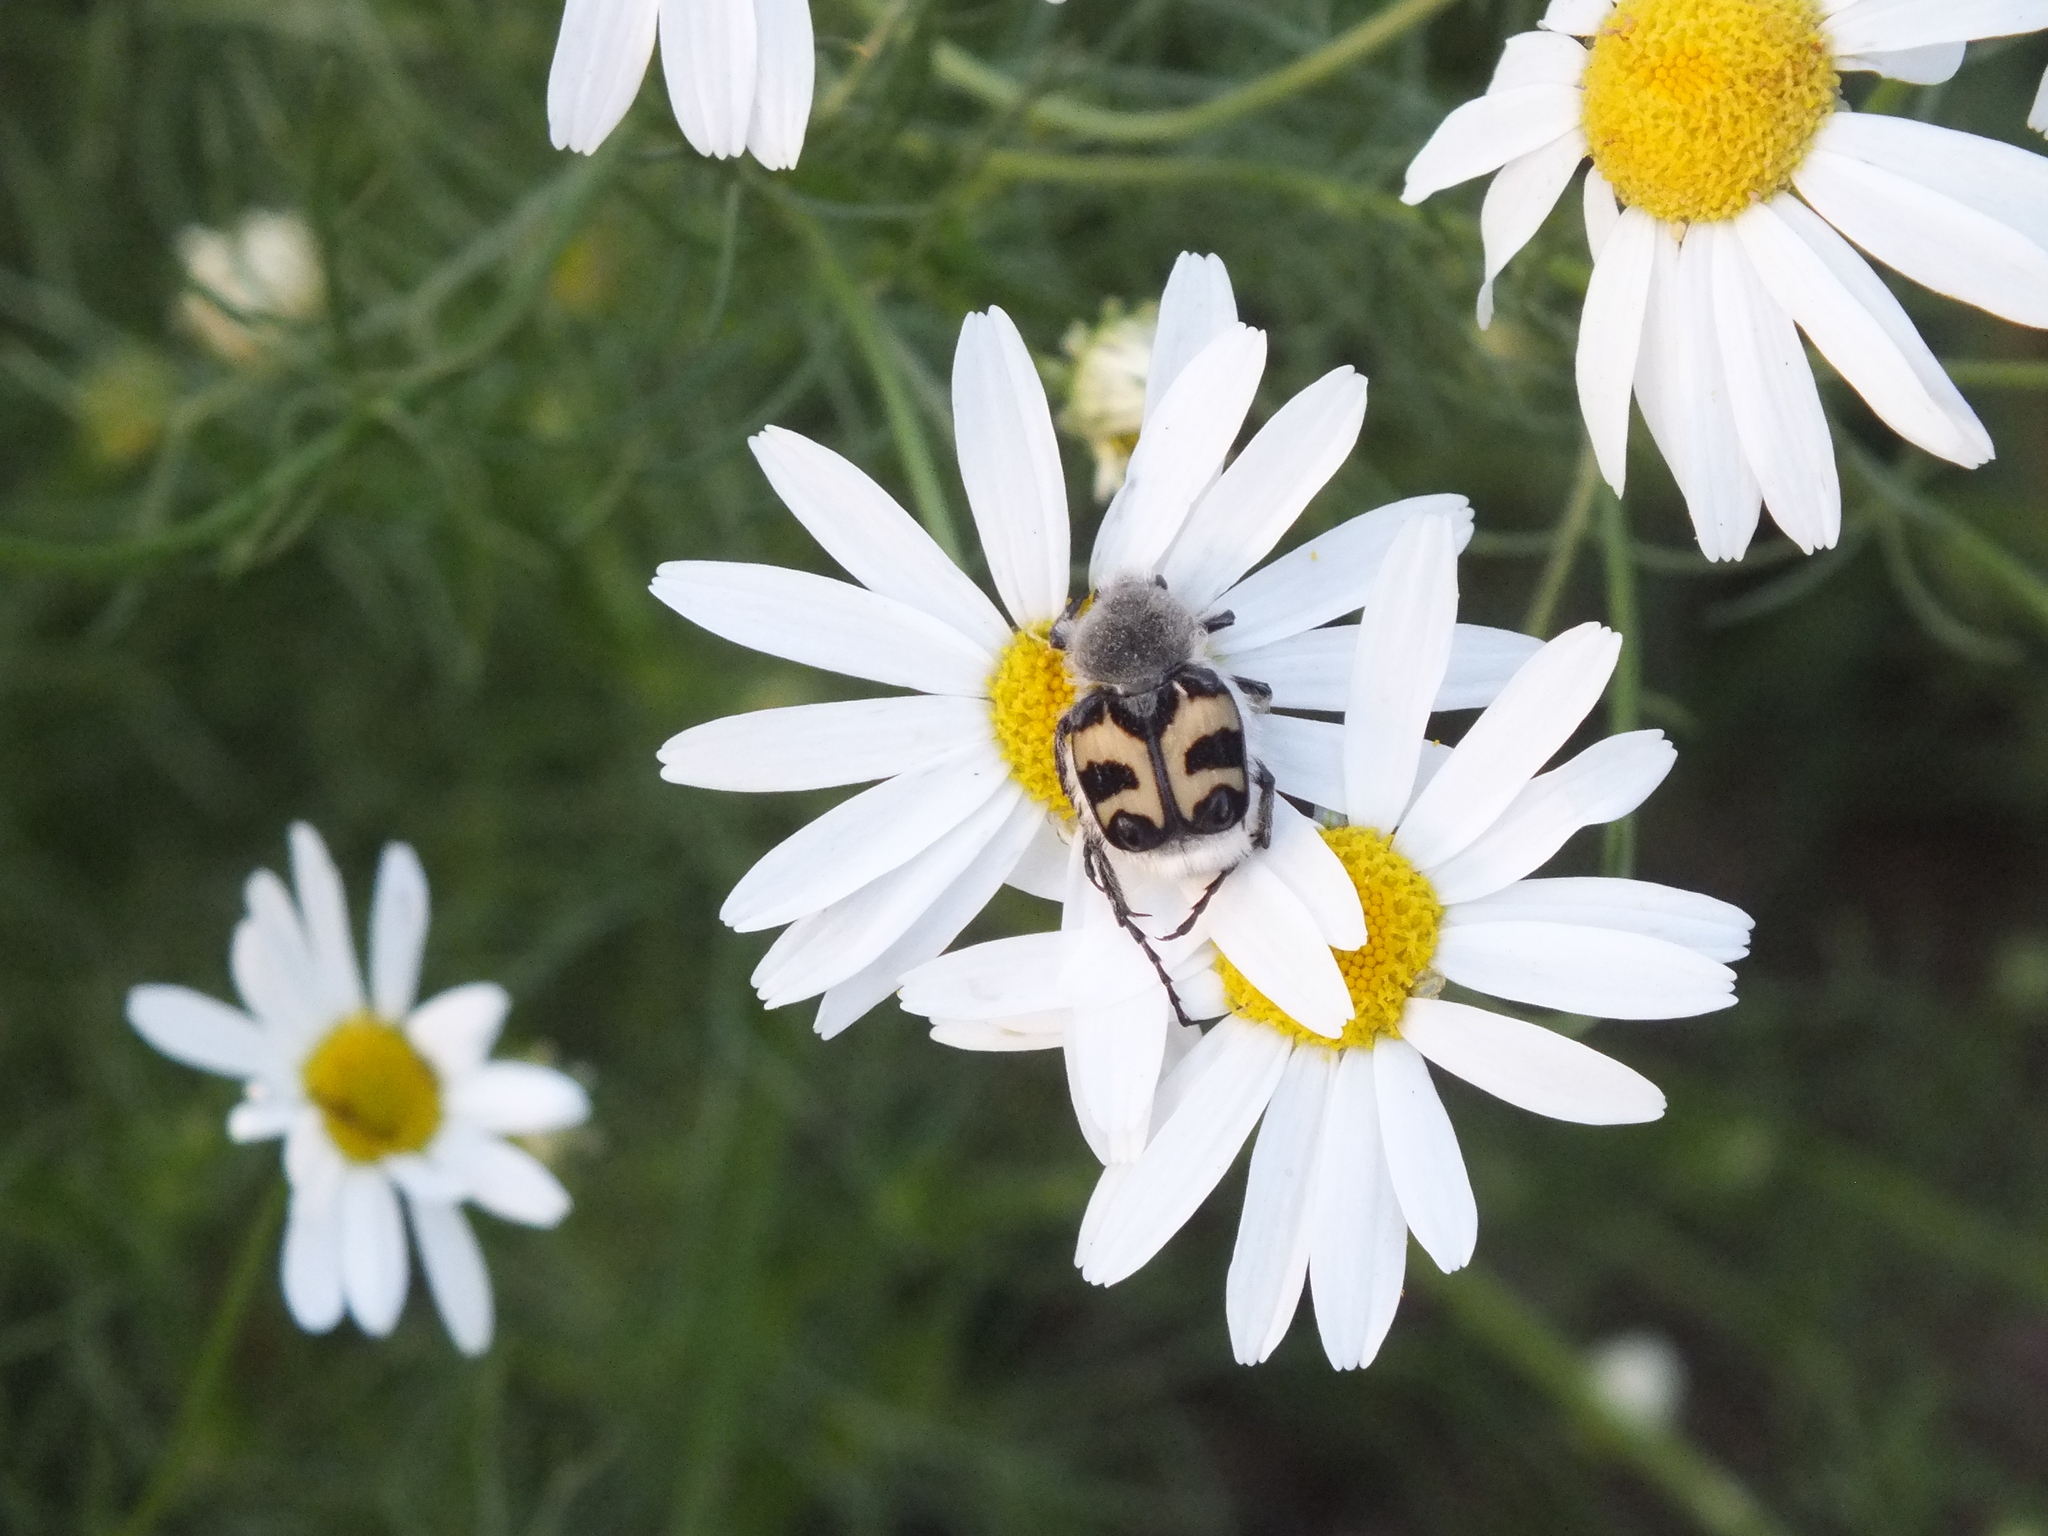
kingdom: Animalia
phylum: Arthropoda
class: Insecta
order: Coleoptera
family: Scarabaeidae
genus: Trichius
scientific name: Trichius fasciatus
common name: Bee beetle
